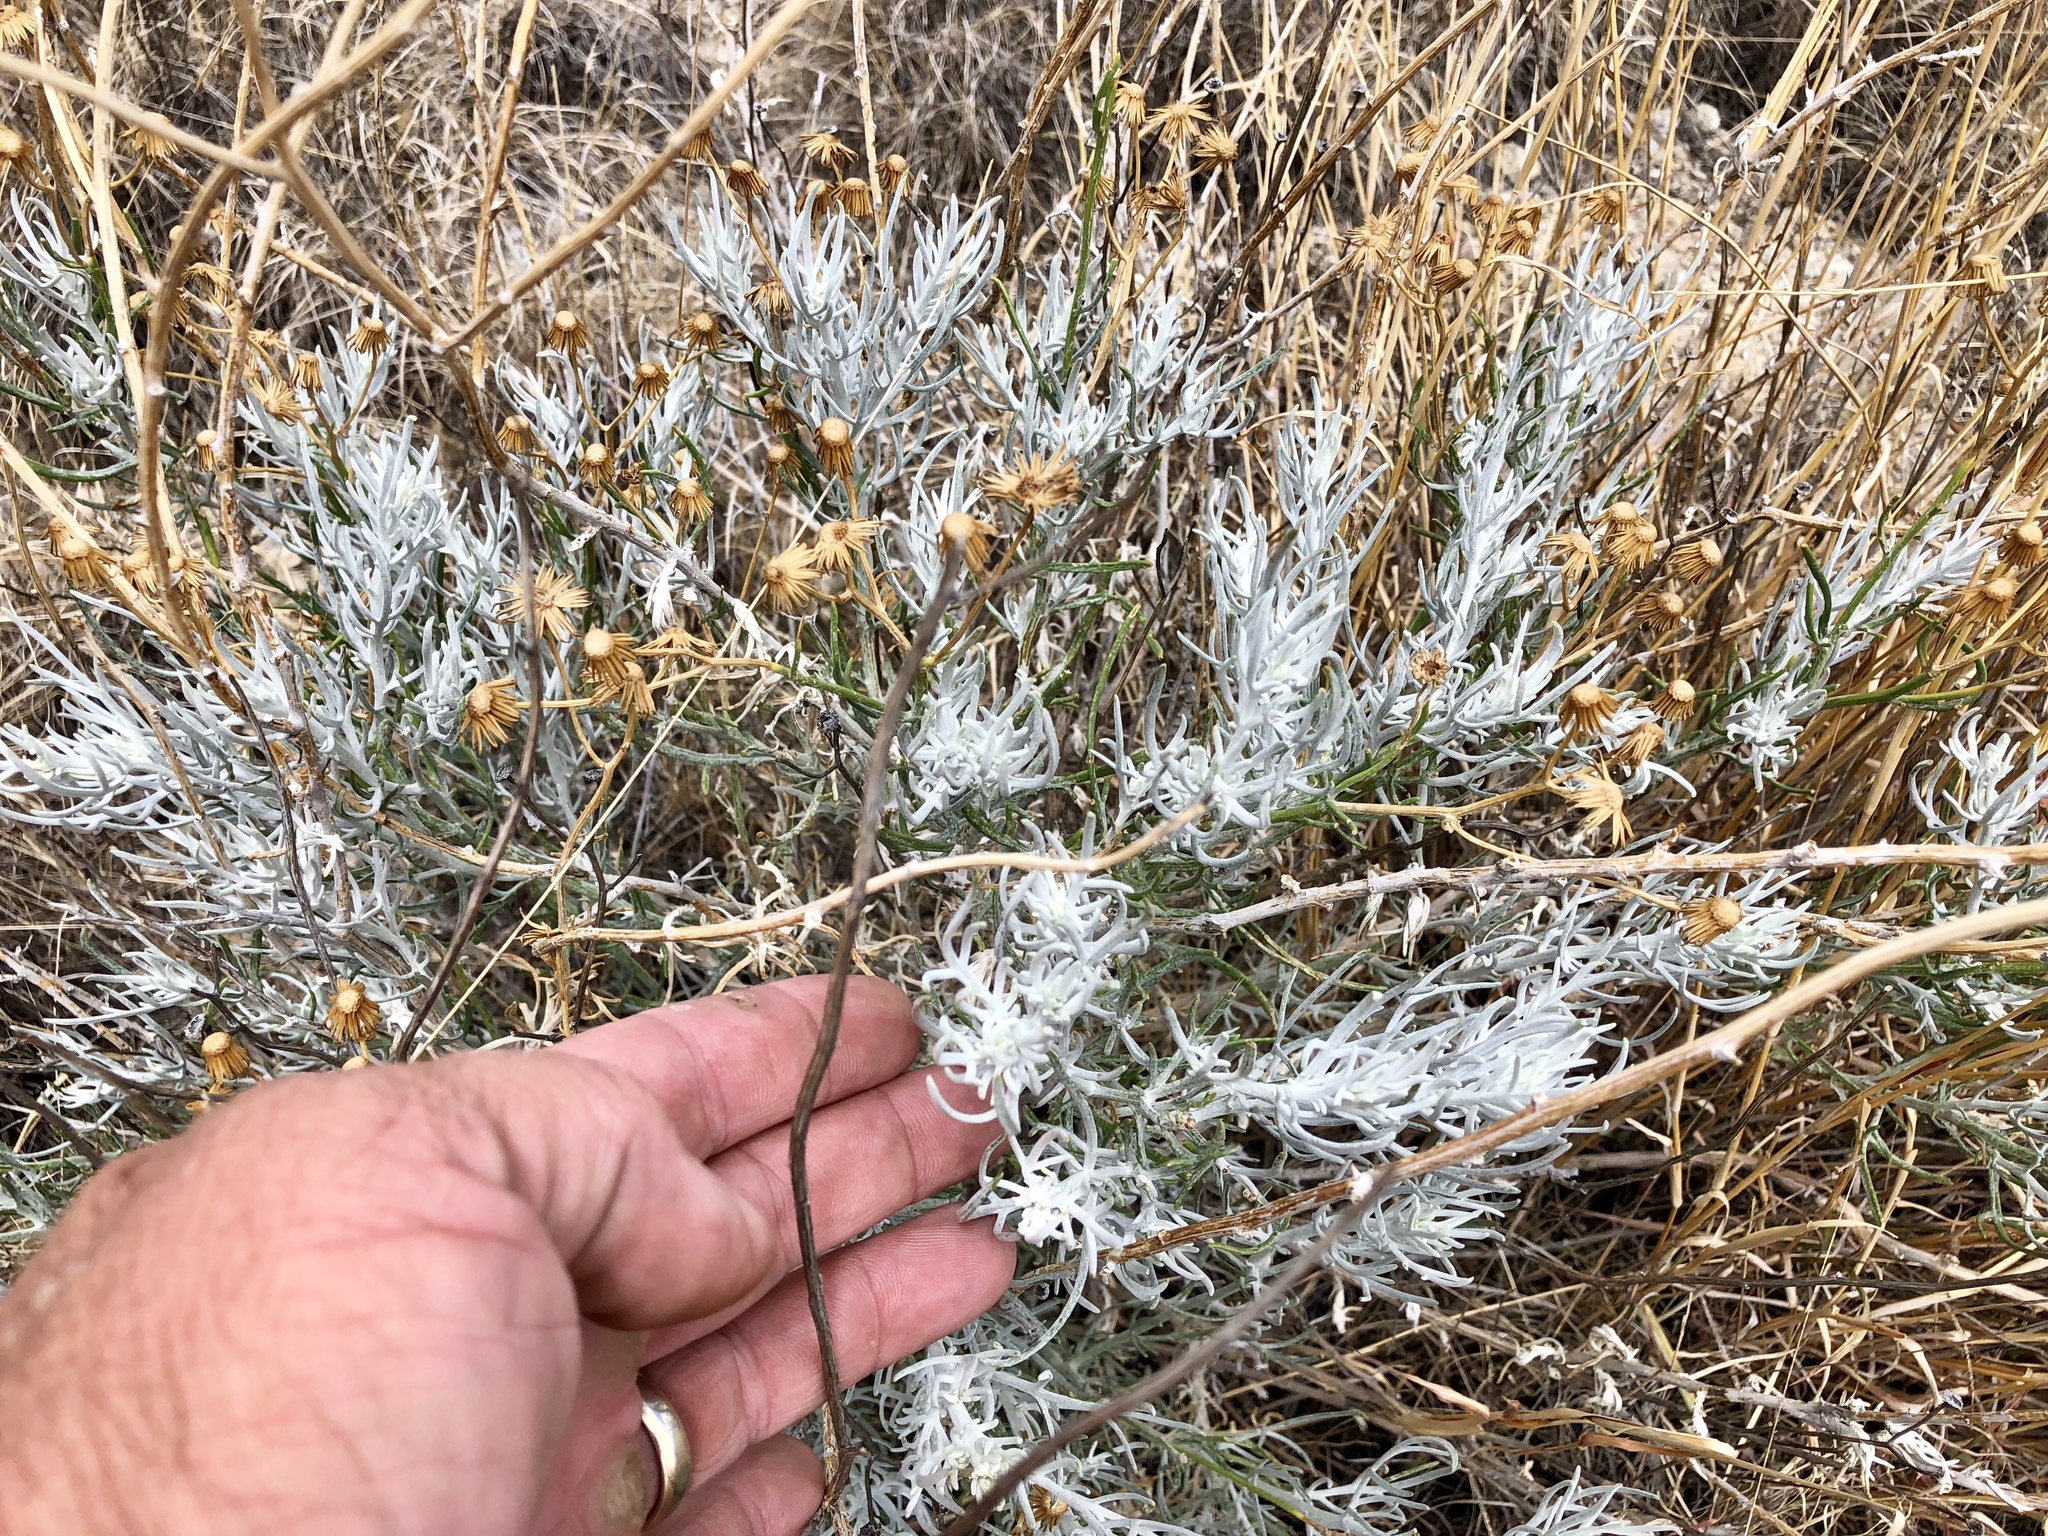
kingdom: Plantae
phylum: Tracheophyta
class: Magnoliopsida
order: Asterales
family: Asteraceae
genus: Senecio
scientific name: Senecio flaccidus
